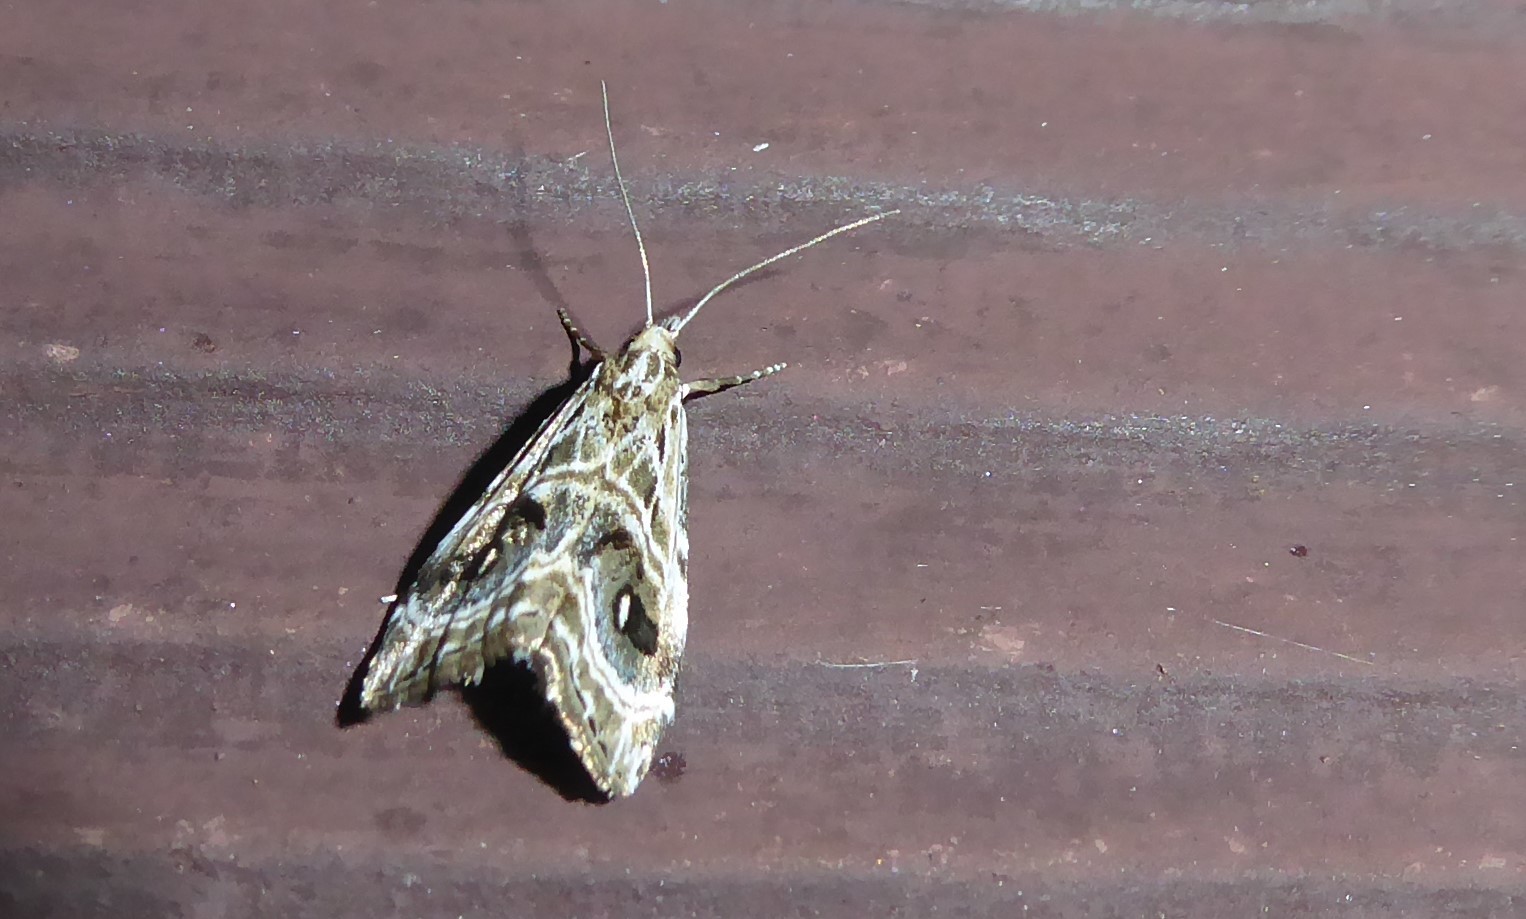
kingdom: Animalia
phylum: Arthropoda
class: Insecta
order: Lepidoptera
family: Crambidae
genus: Gadira
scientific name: Gadira acerella
